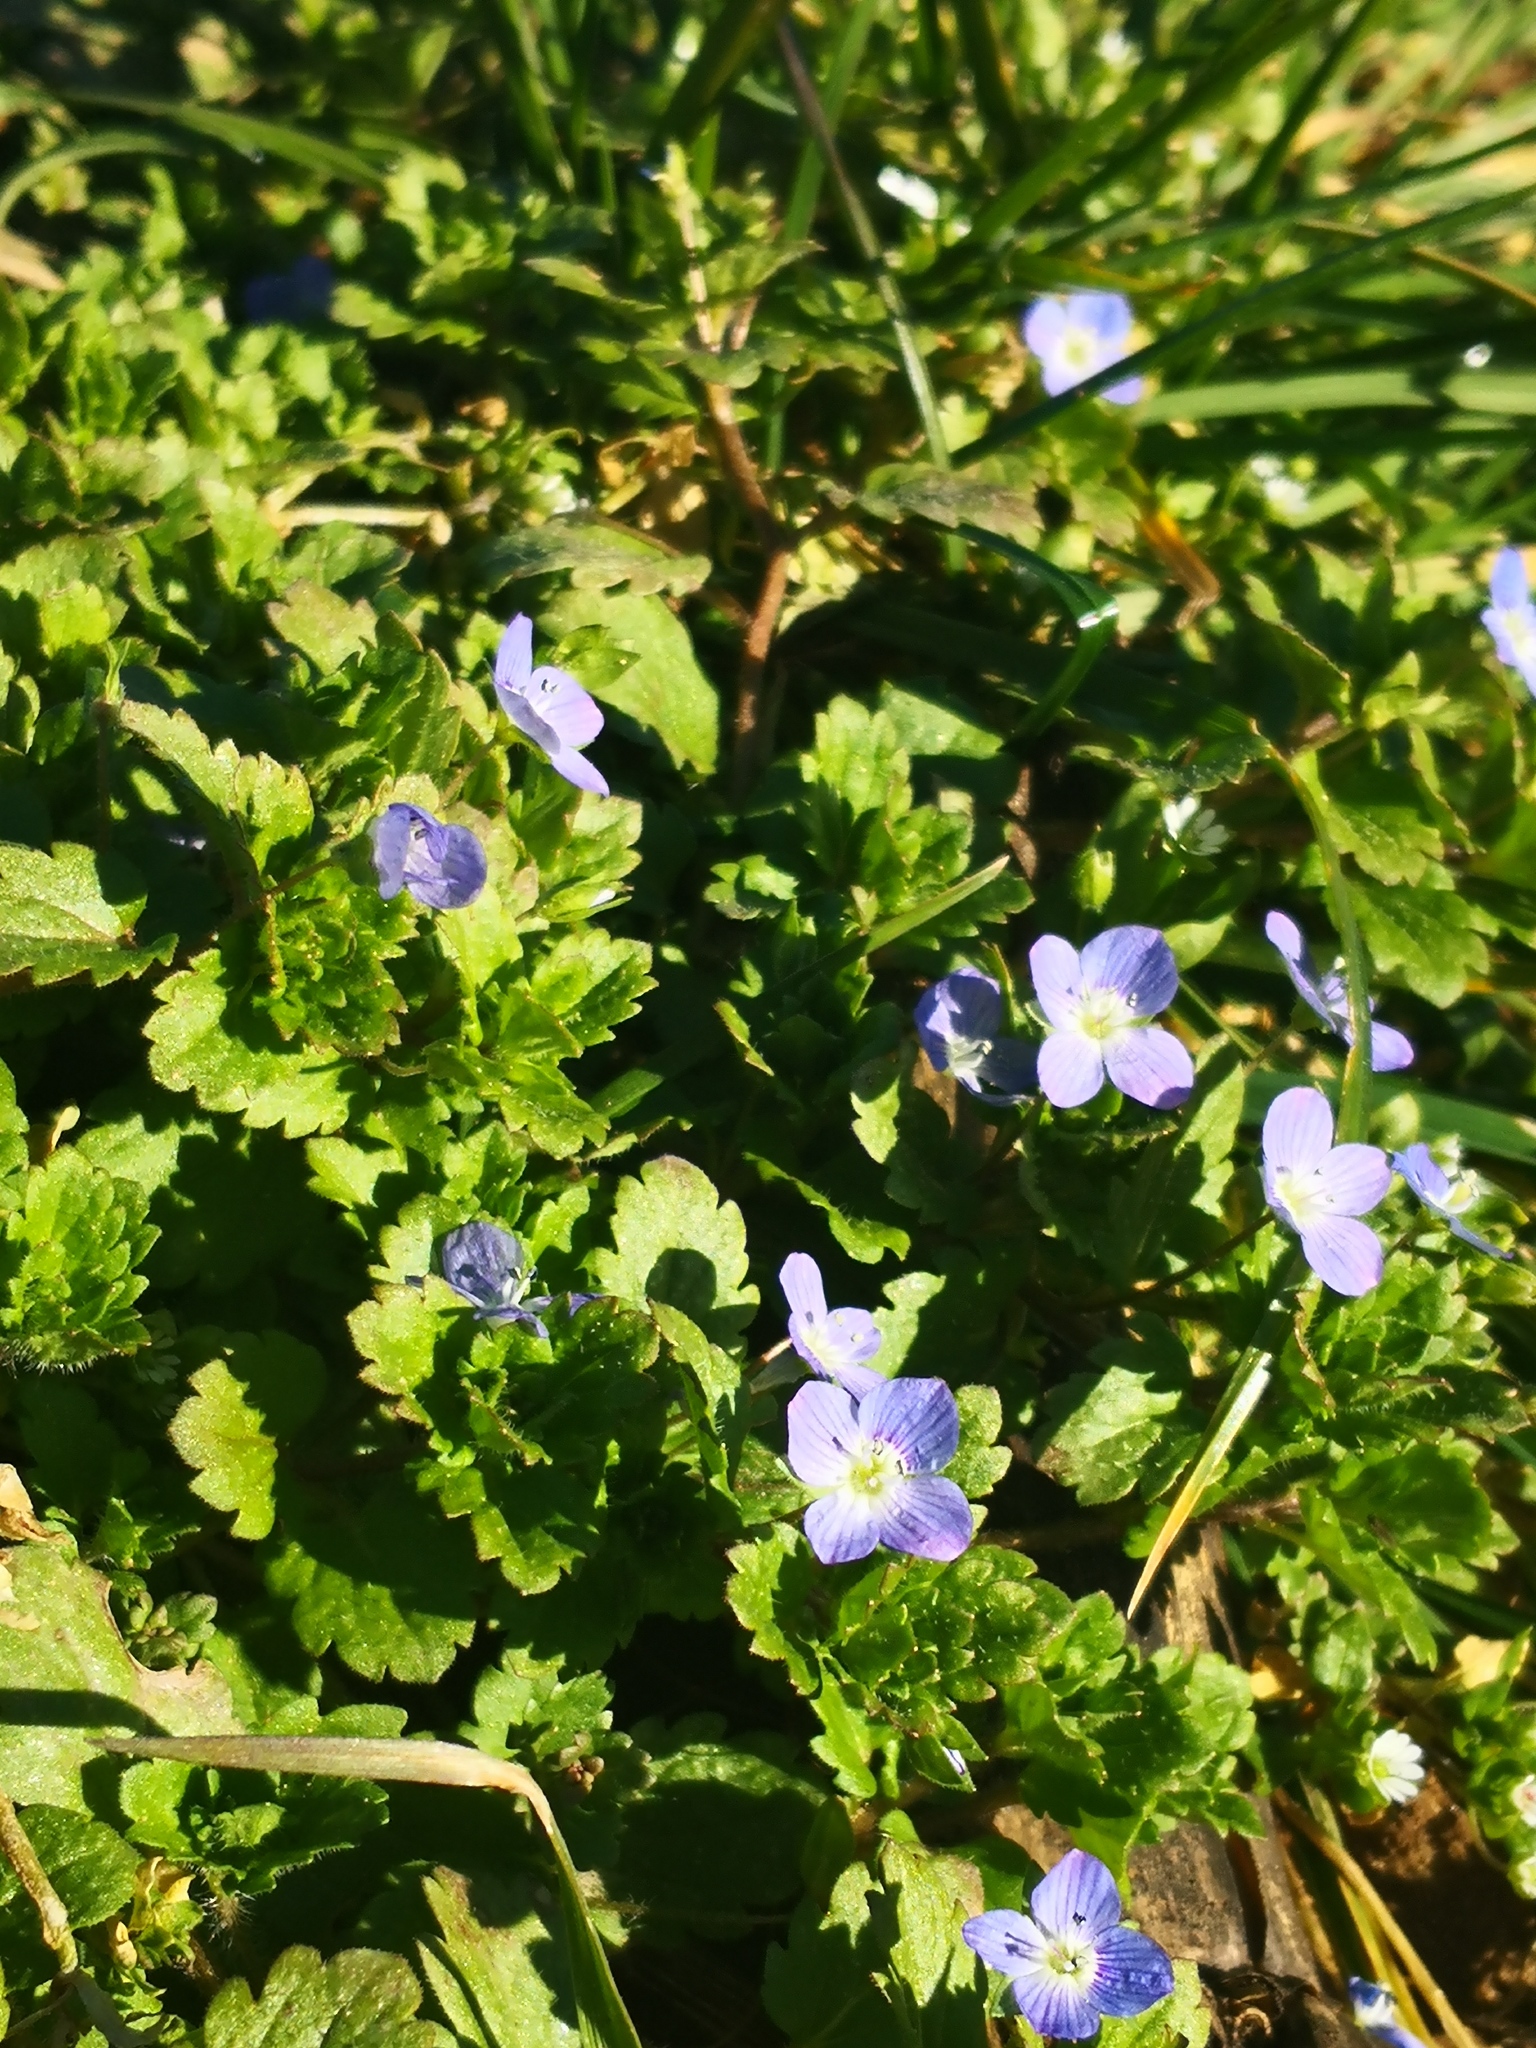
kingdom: Plantae
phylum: Tracheophyta
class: Magnoliopsida
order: Lamiales
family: Plantaginaceae
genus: Veronica
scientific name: Veronica persica
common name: Common field-speedwell
